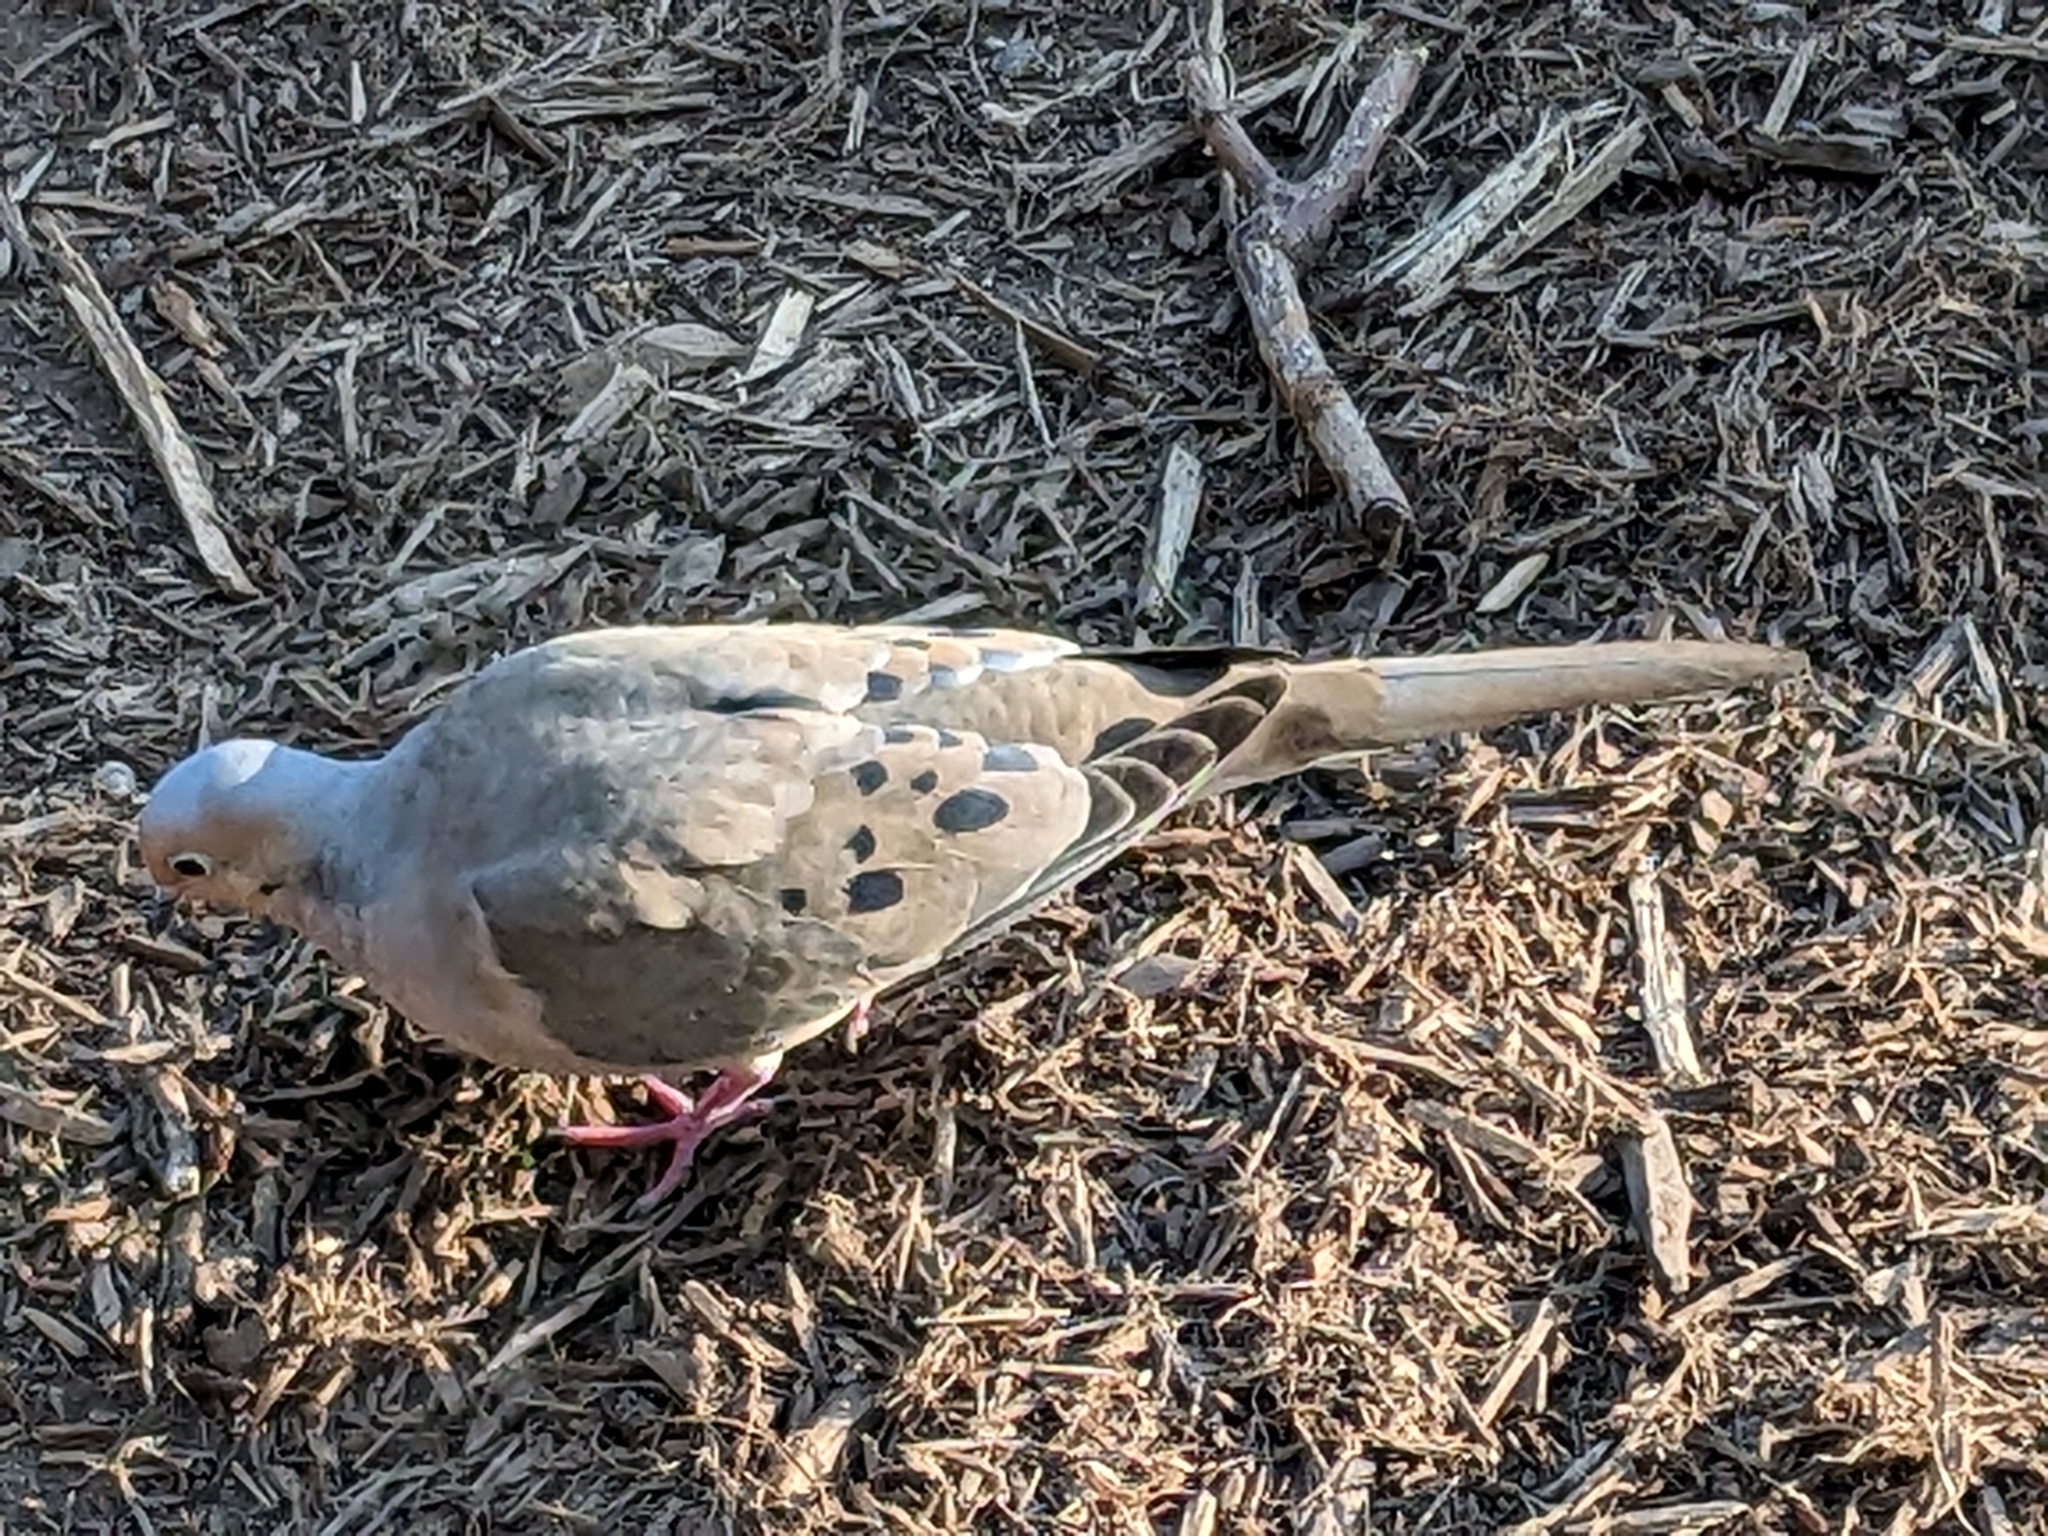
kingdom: Animalia
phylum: Chordata
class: Aves
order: Columbiformes
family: Columbidae
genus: Zenaida
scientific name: Zenaida macroura
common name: Mourning dove
